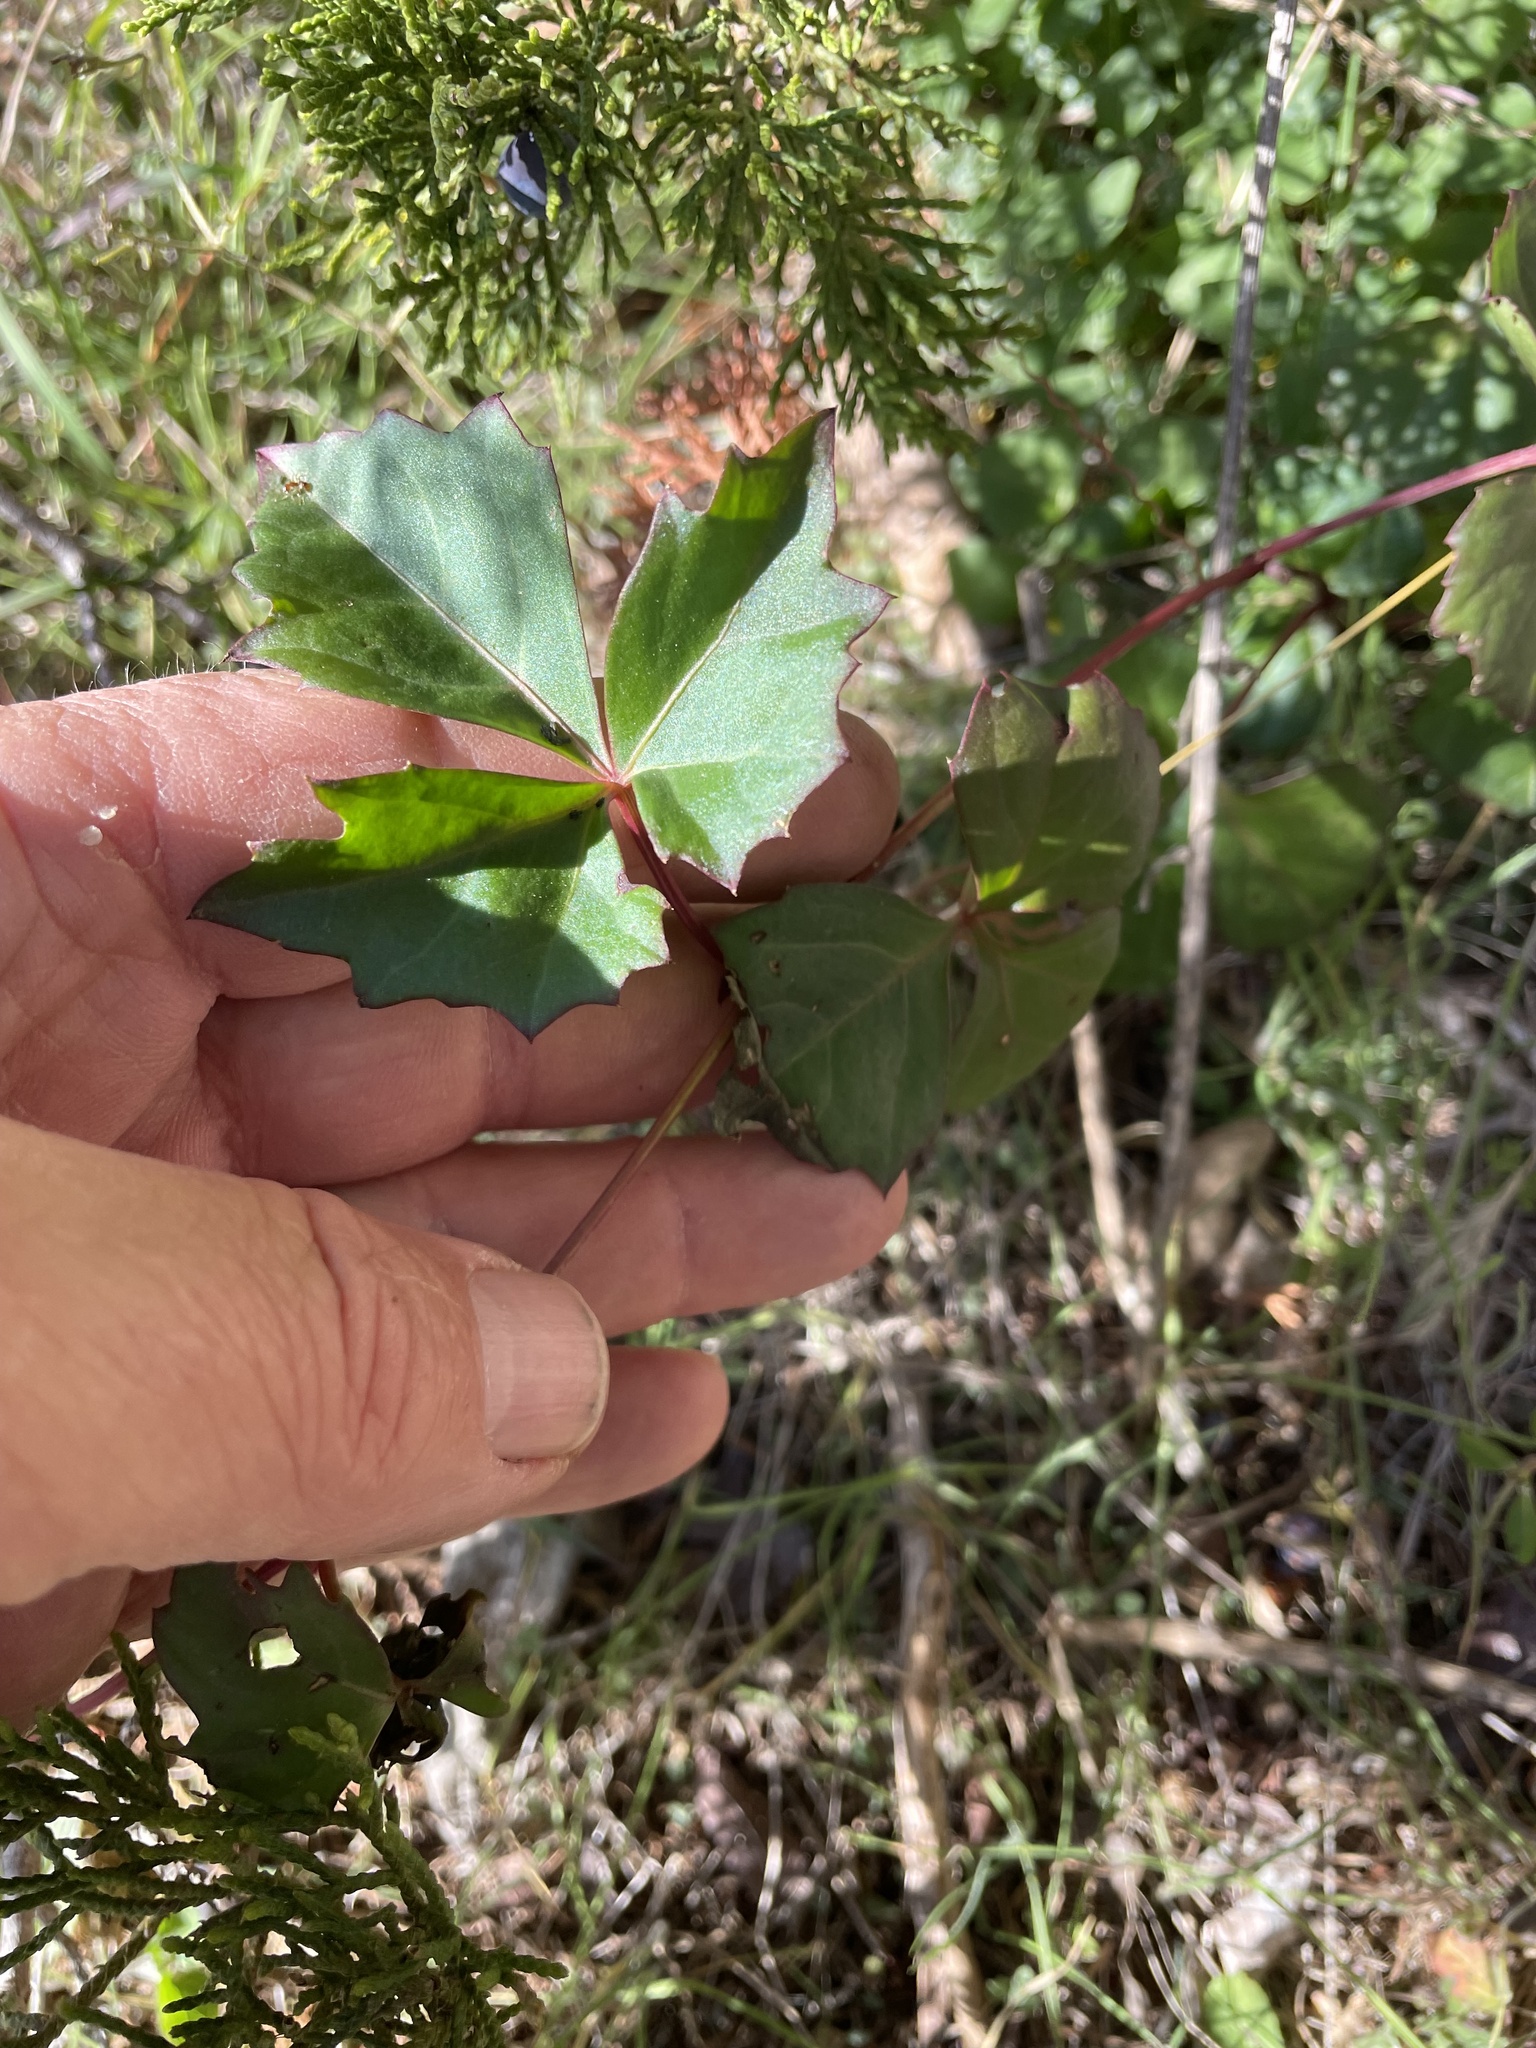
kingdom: Plantae
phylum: Tracheophyta
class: Magnoliopsida
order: Vitales
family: Vitaceae
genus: Cissus
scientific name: Cissus trifoliata
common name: Vine-sorrel
